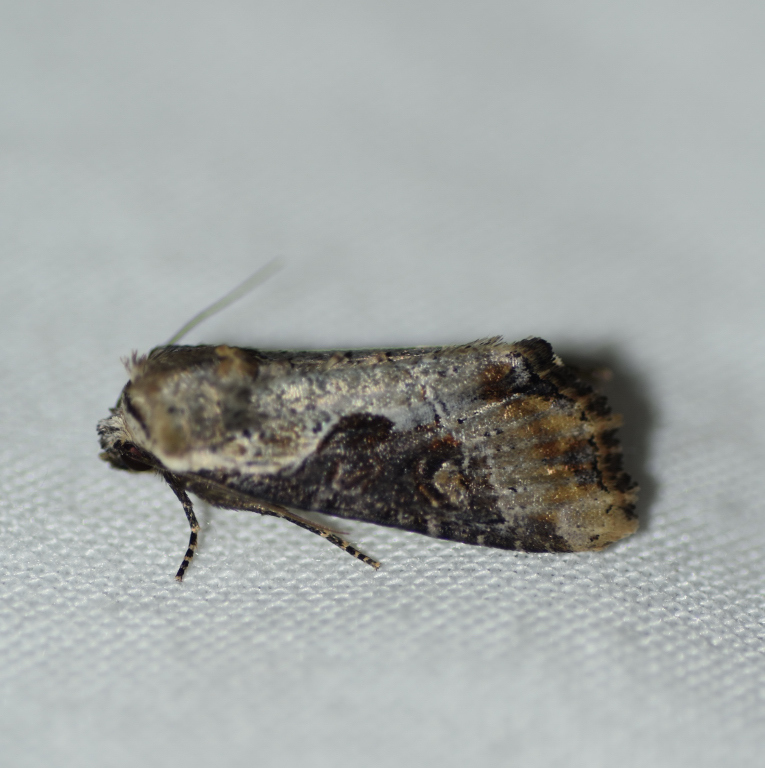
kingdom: Animalia
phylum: Arthropoda
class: Insecta
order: Lepidoptera
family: Noctuidae
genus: Lateroligia
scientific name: Lateroligia ophiogramma
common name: Double lobed
